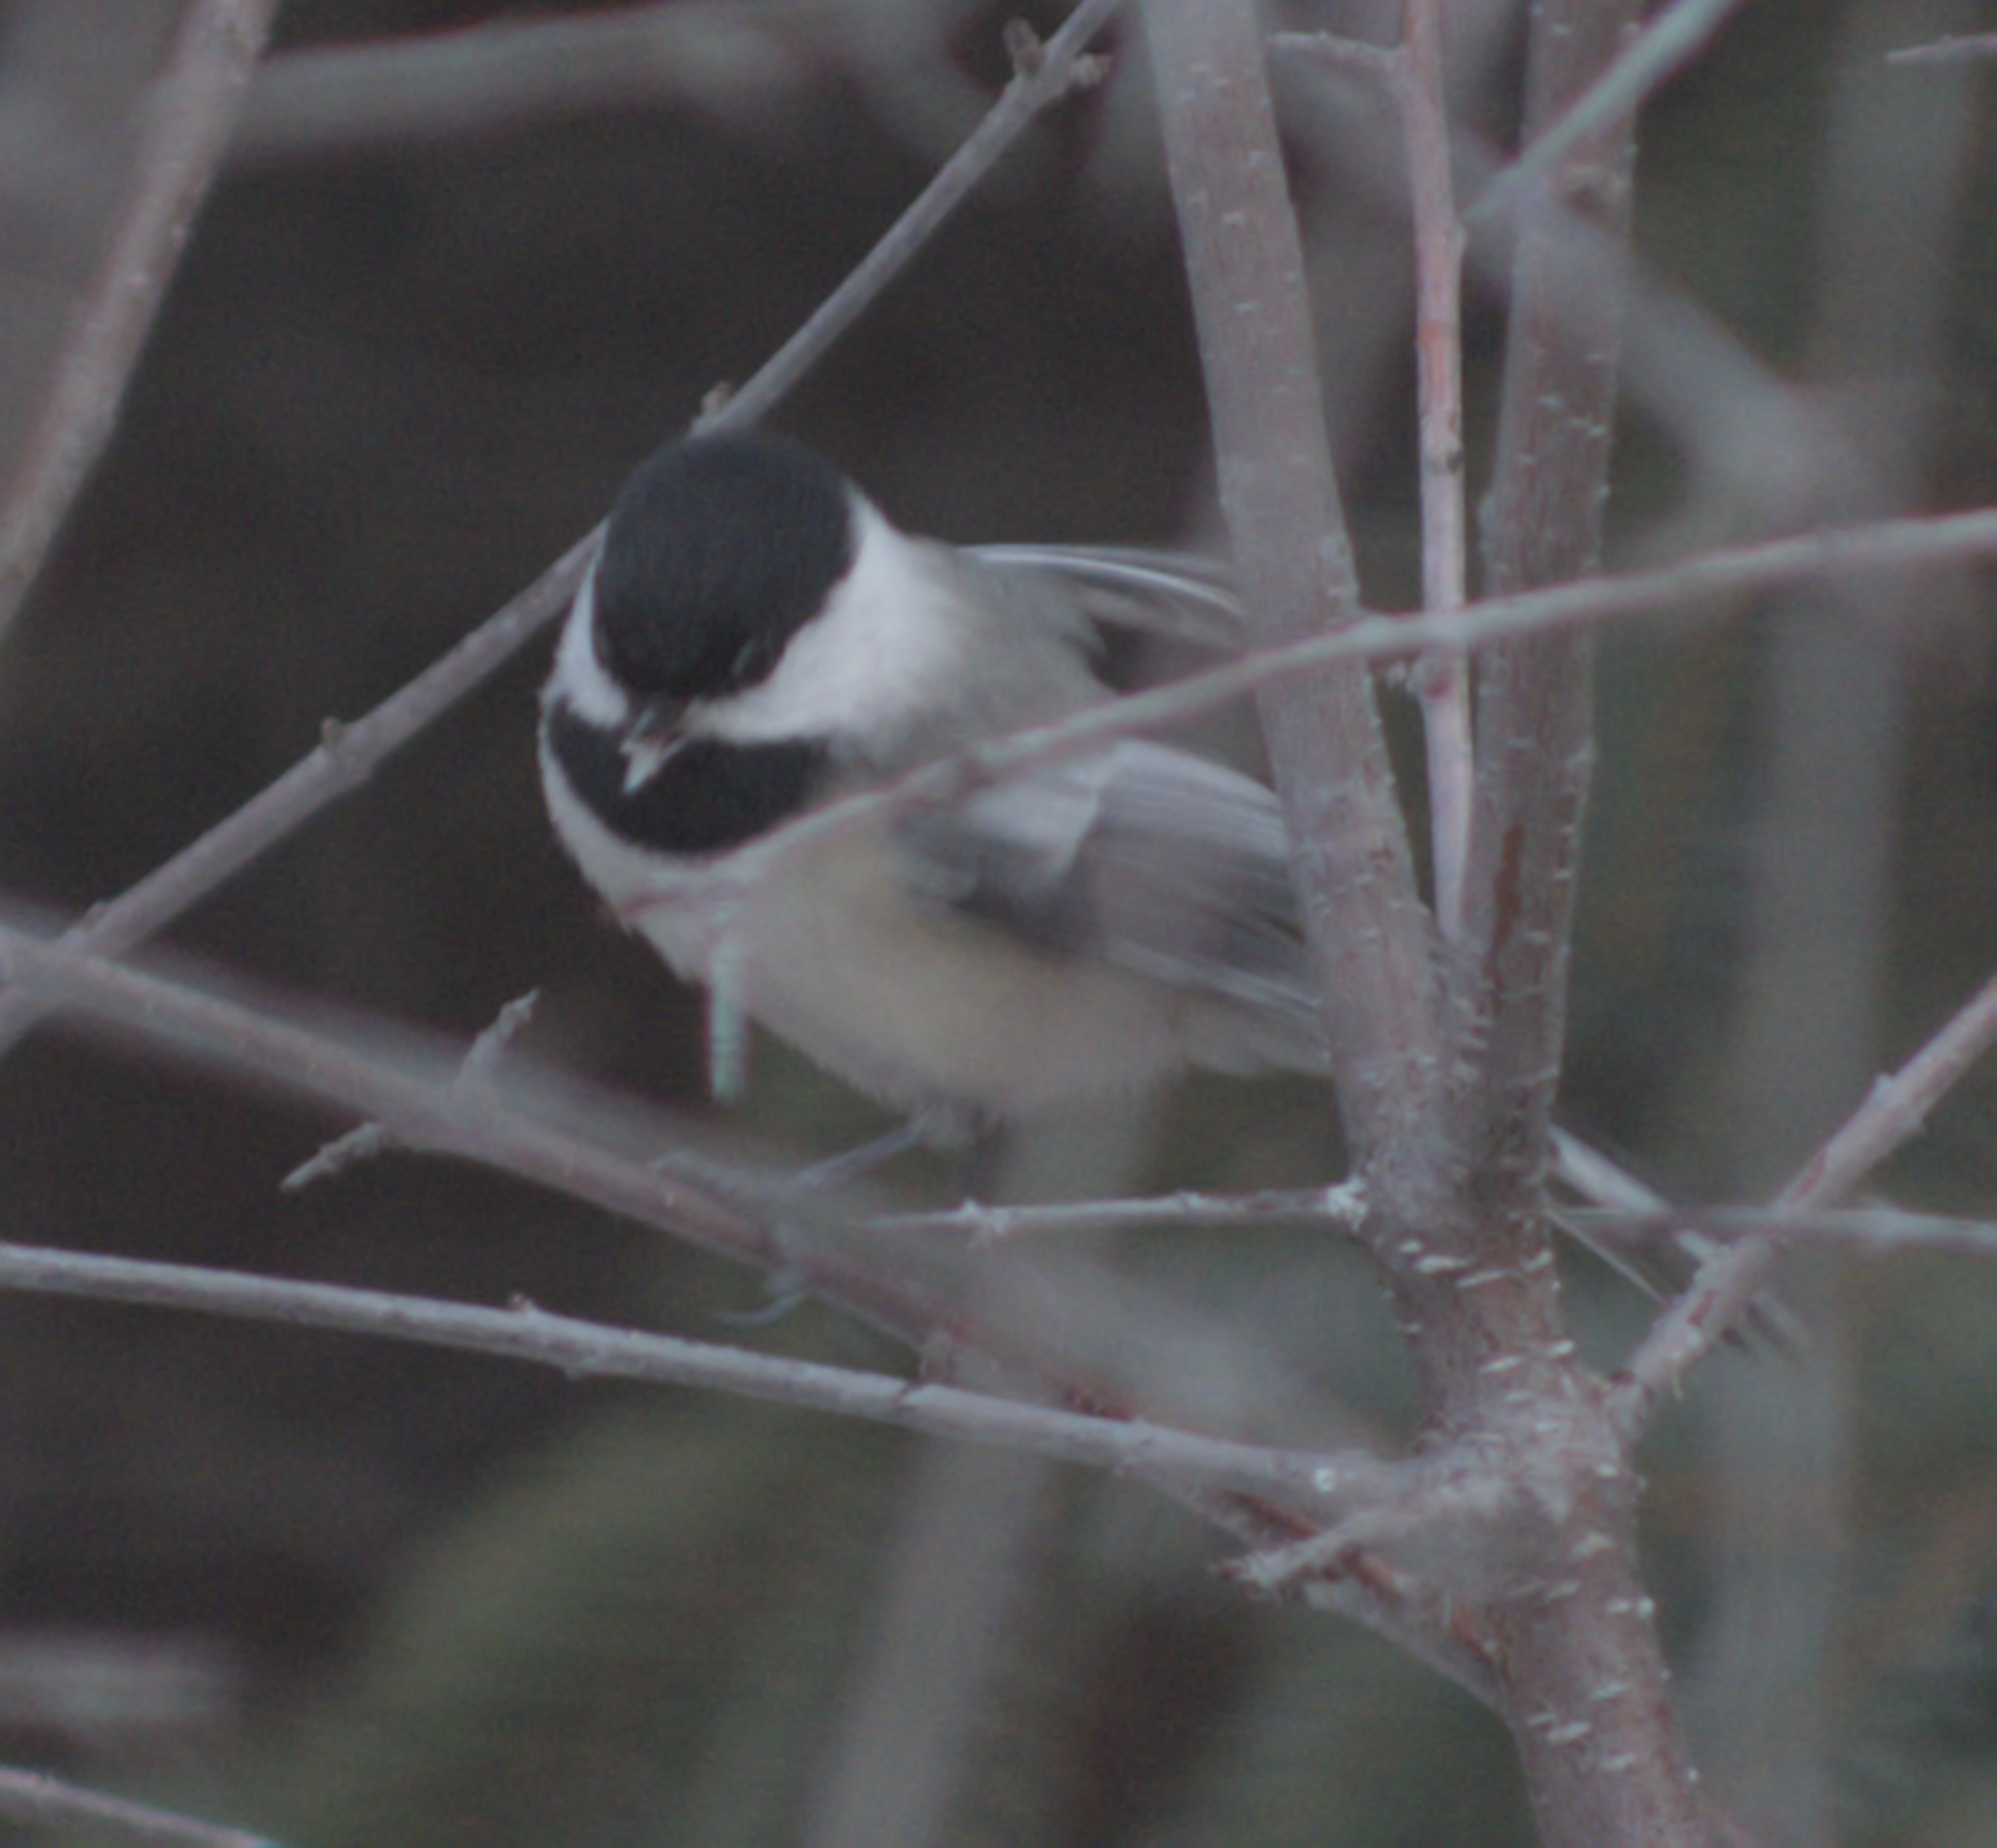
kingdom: Animalia
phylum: Chordata
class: Aves
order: Passeriformes
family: Paridae
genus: Poecile
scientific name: Poecile atricapillus
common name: Black-capped chickadee
